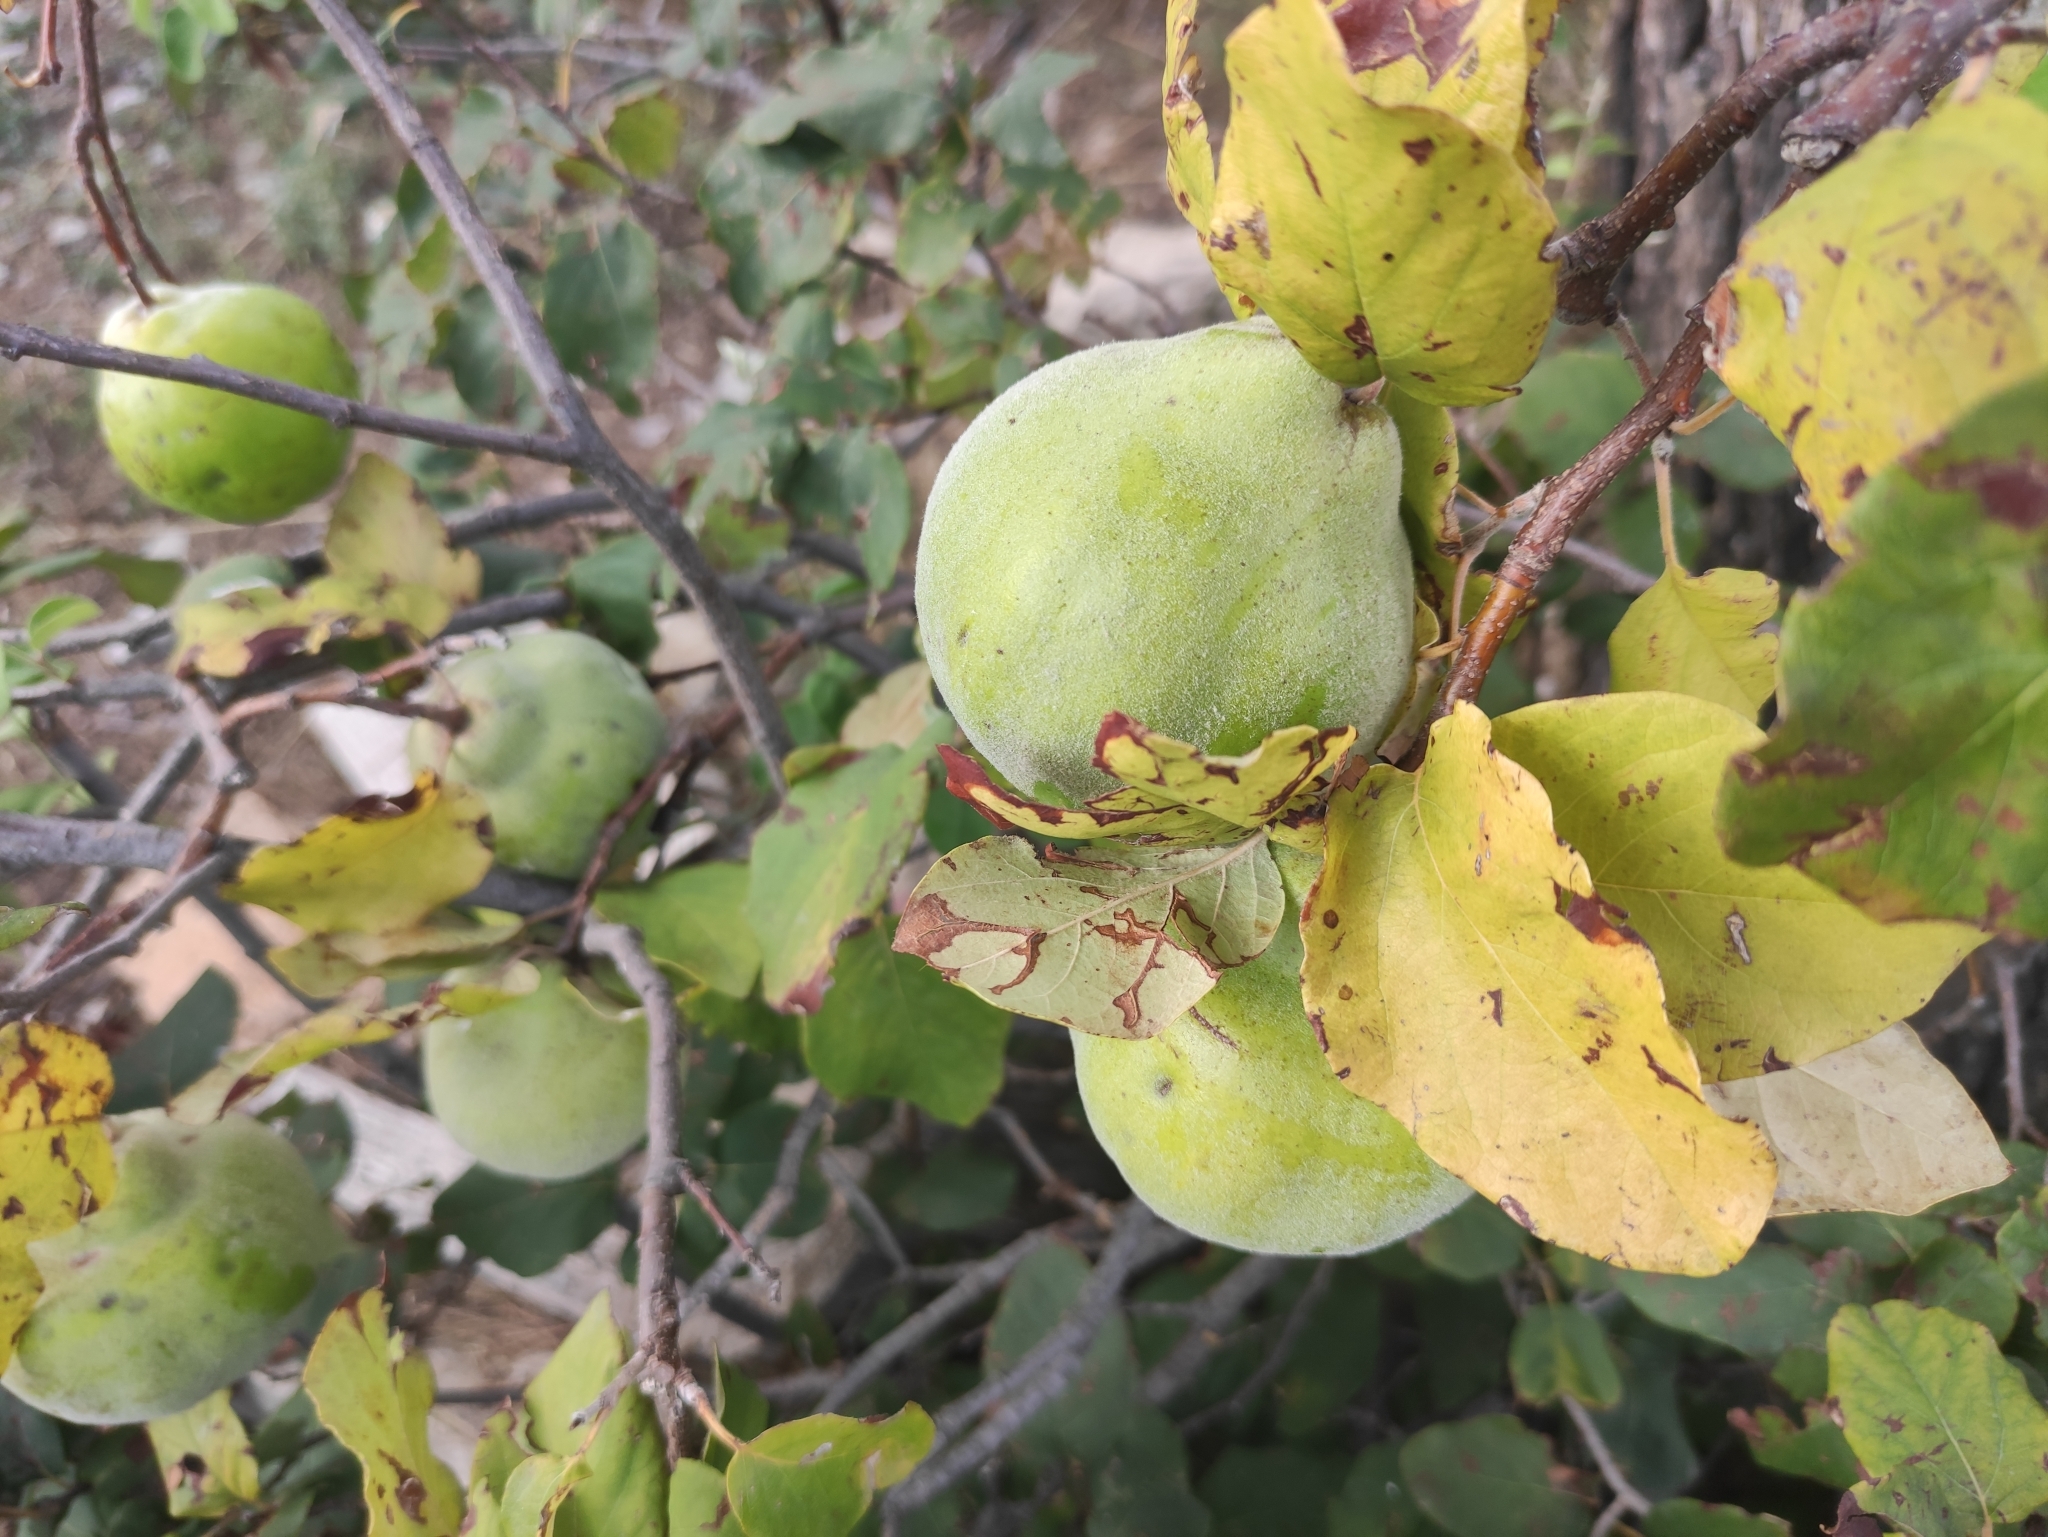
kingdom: Plantae
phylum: Tracheophyta
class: Magnoliopsida
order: Rosales
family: Rosaceae
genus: Cydonia
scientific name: Cydonia oblonga
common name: Quince
